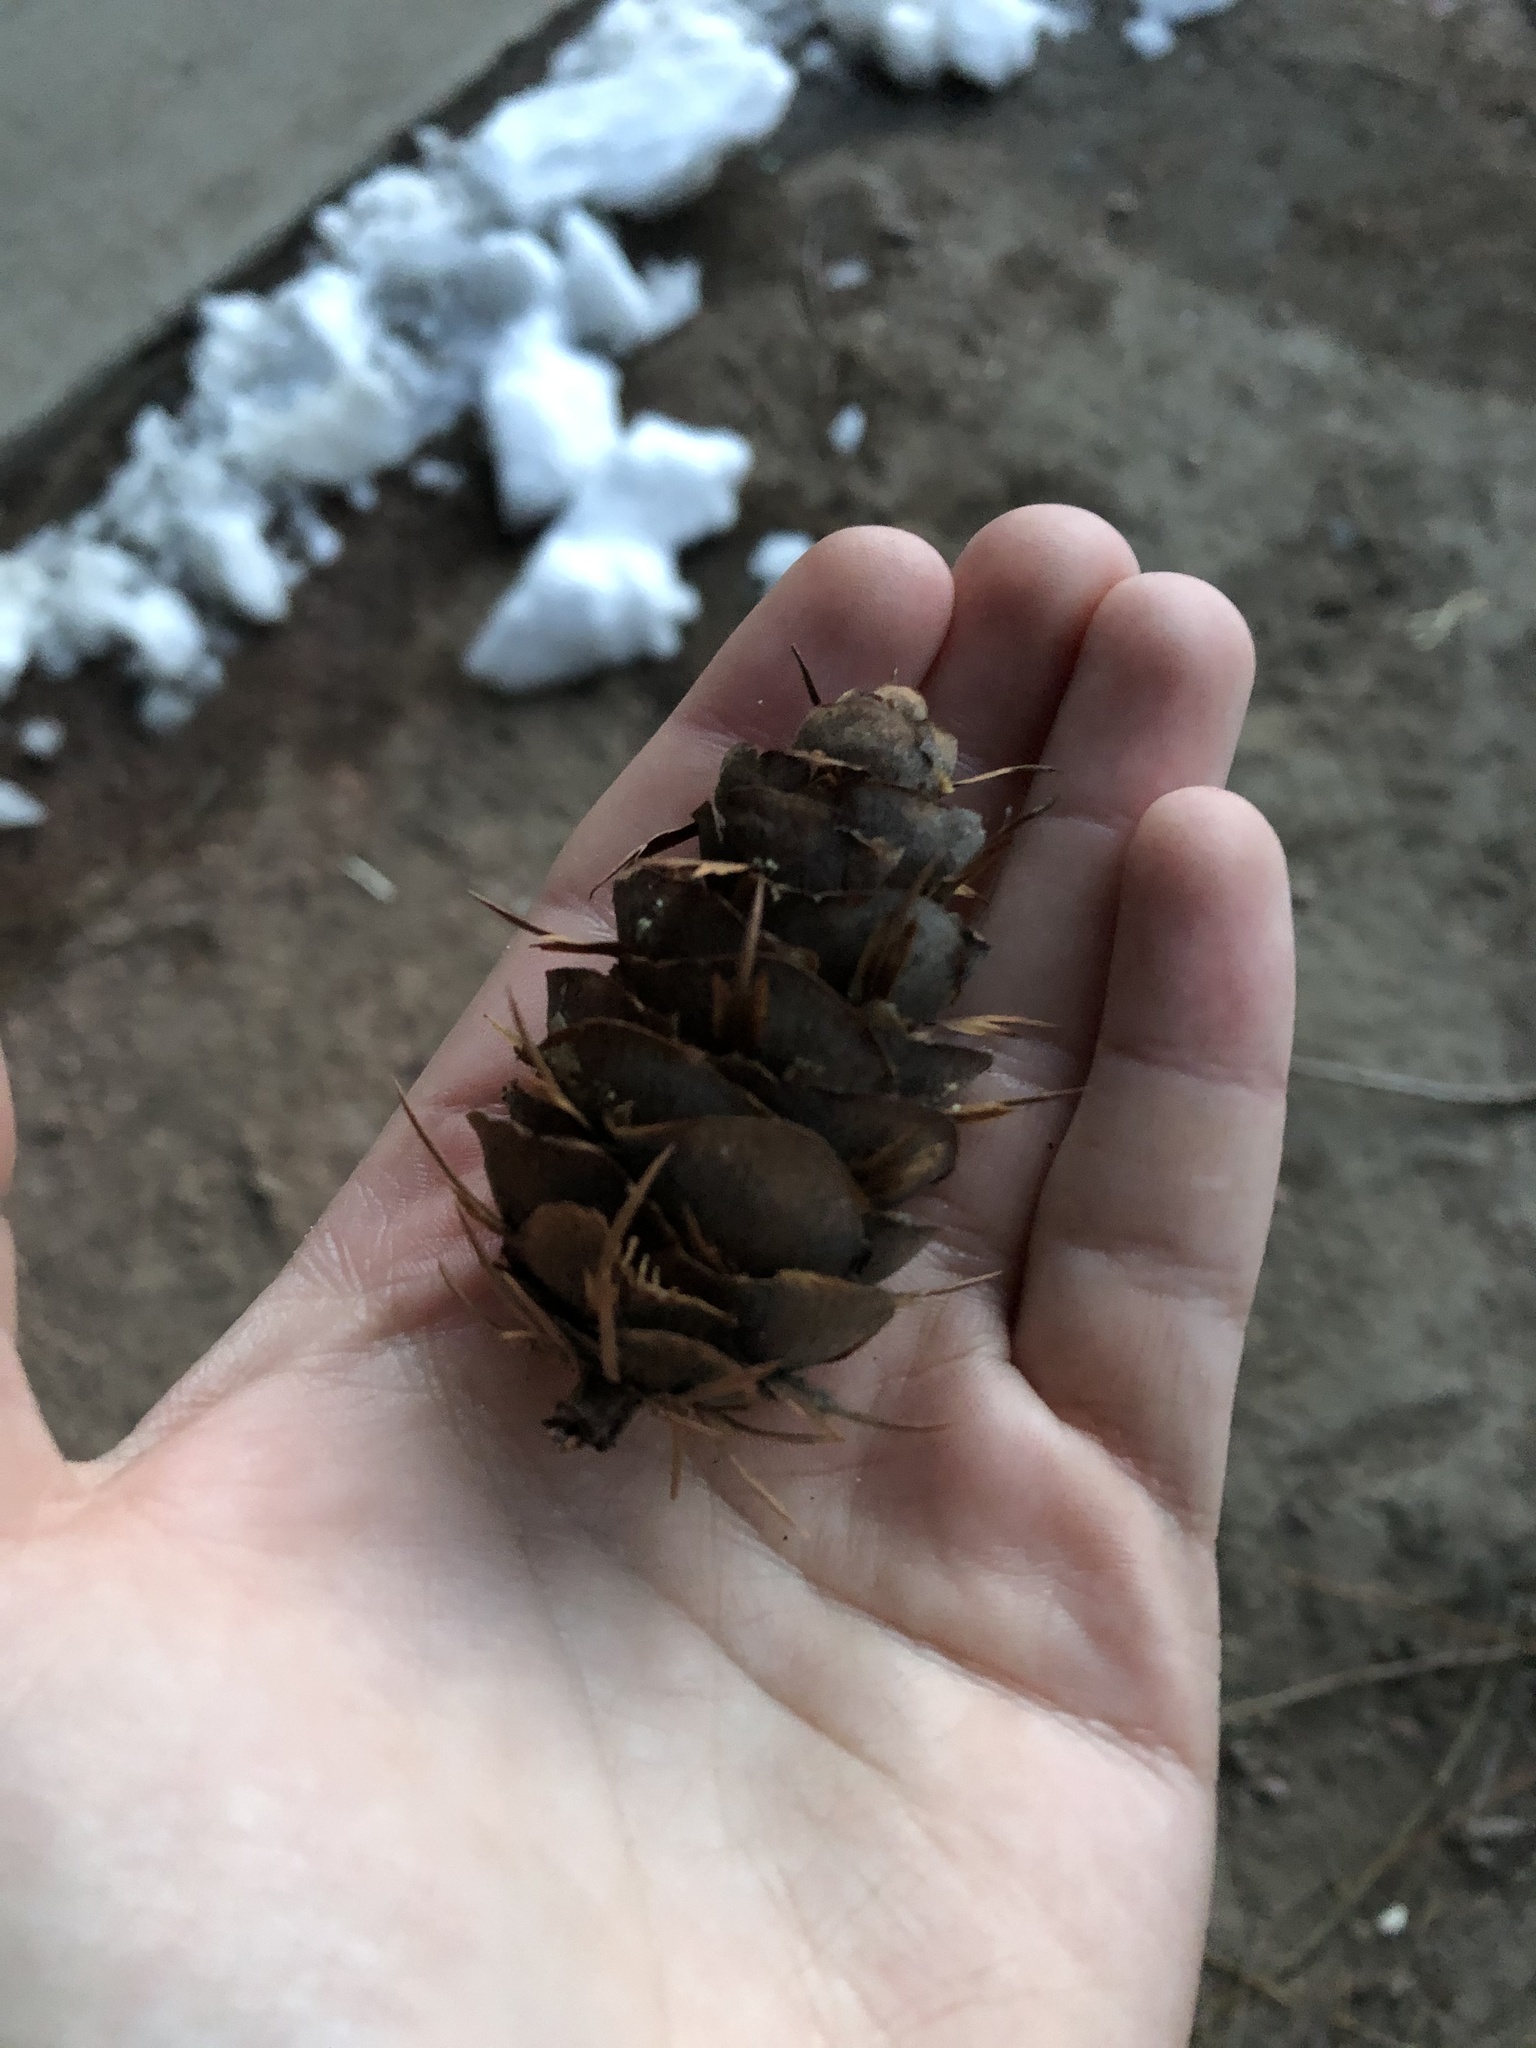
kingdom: Plantae
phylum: Tracheophyta
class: Pinopsida
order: Pinales
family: Pinaceae
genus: Pseudotsuga
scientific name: Pseudotsuga menziesii
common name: Douglas fir
